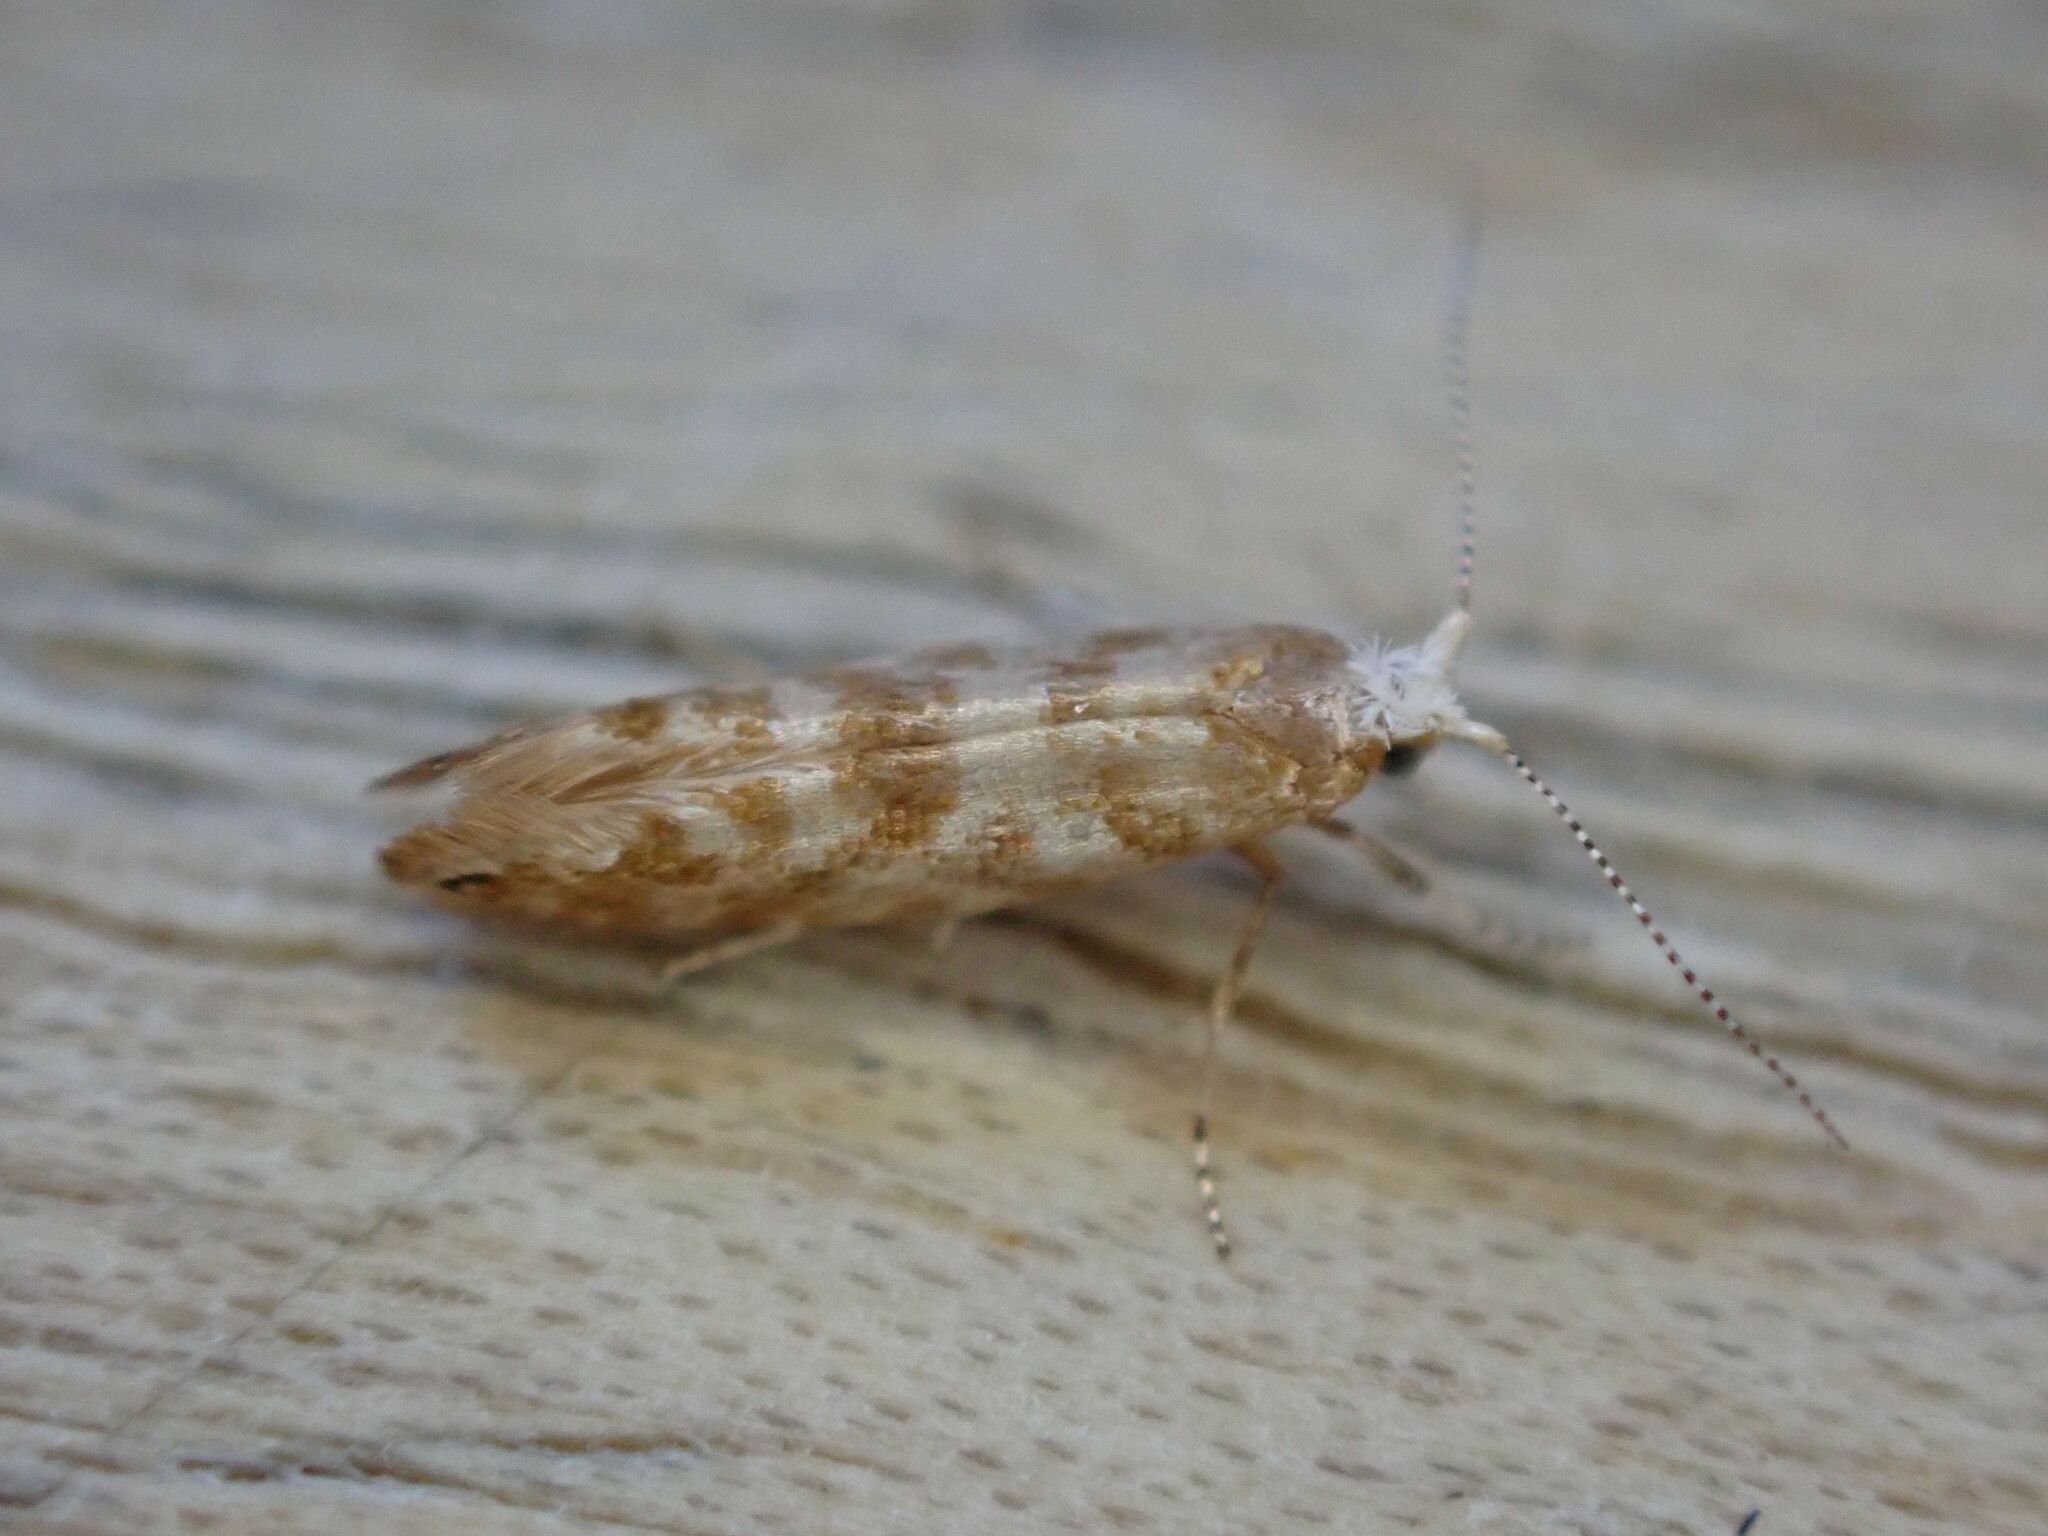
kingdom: Animalia
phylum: Arthropoda
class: Insecta
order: Lepidoptera
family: Argyresthiidae
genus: Argyresthia
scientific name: Argyresthia cupressella
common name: Cypress tip moth
